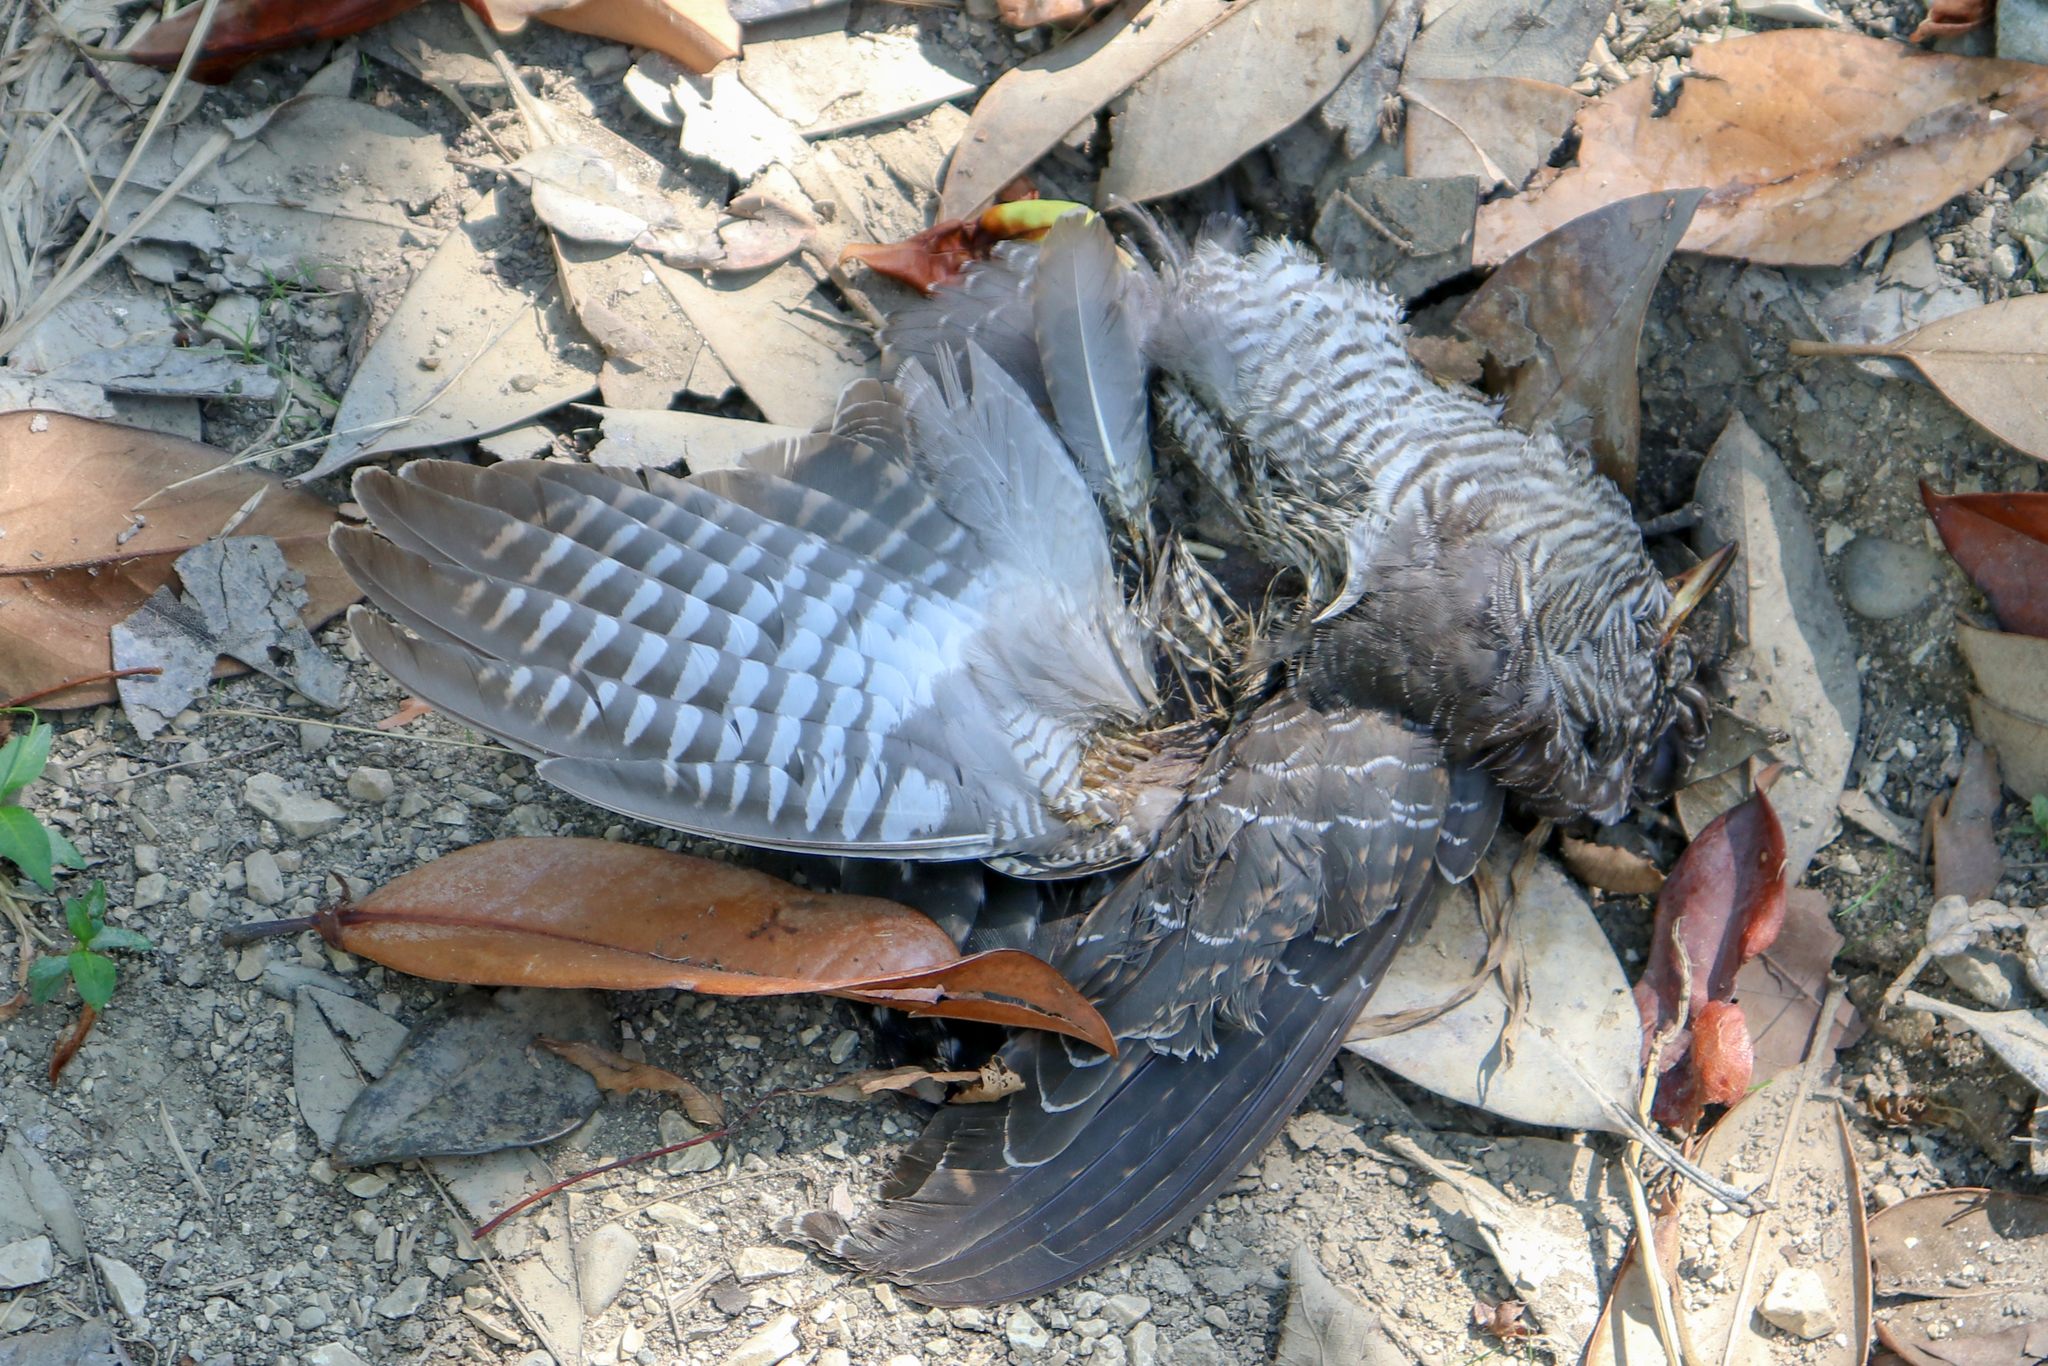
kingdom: Animalia
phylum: Chordata
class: Aves
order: Cuculiformes
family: Cuculidae
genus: Cuculus
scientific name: Cuculus canorus
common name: Common cuckoo
